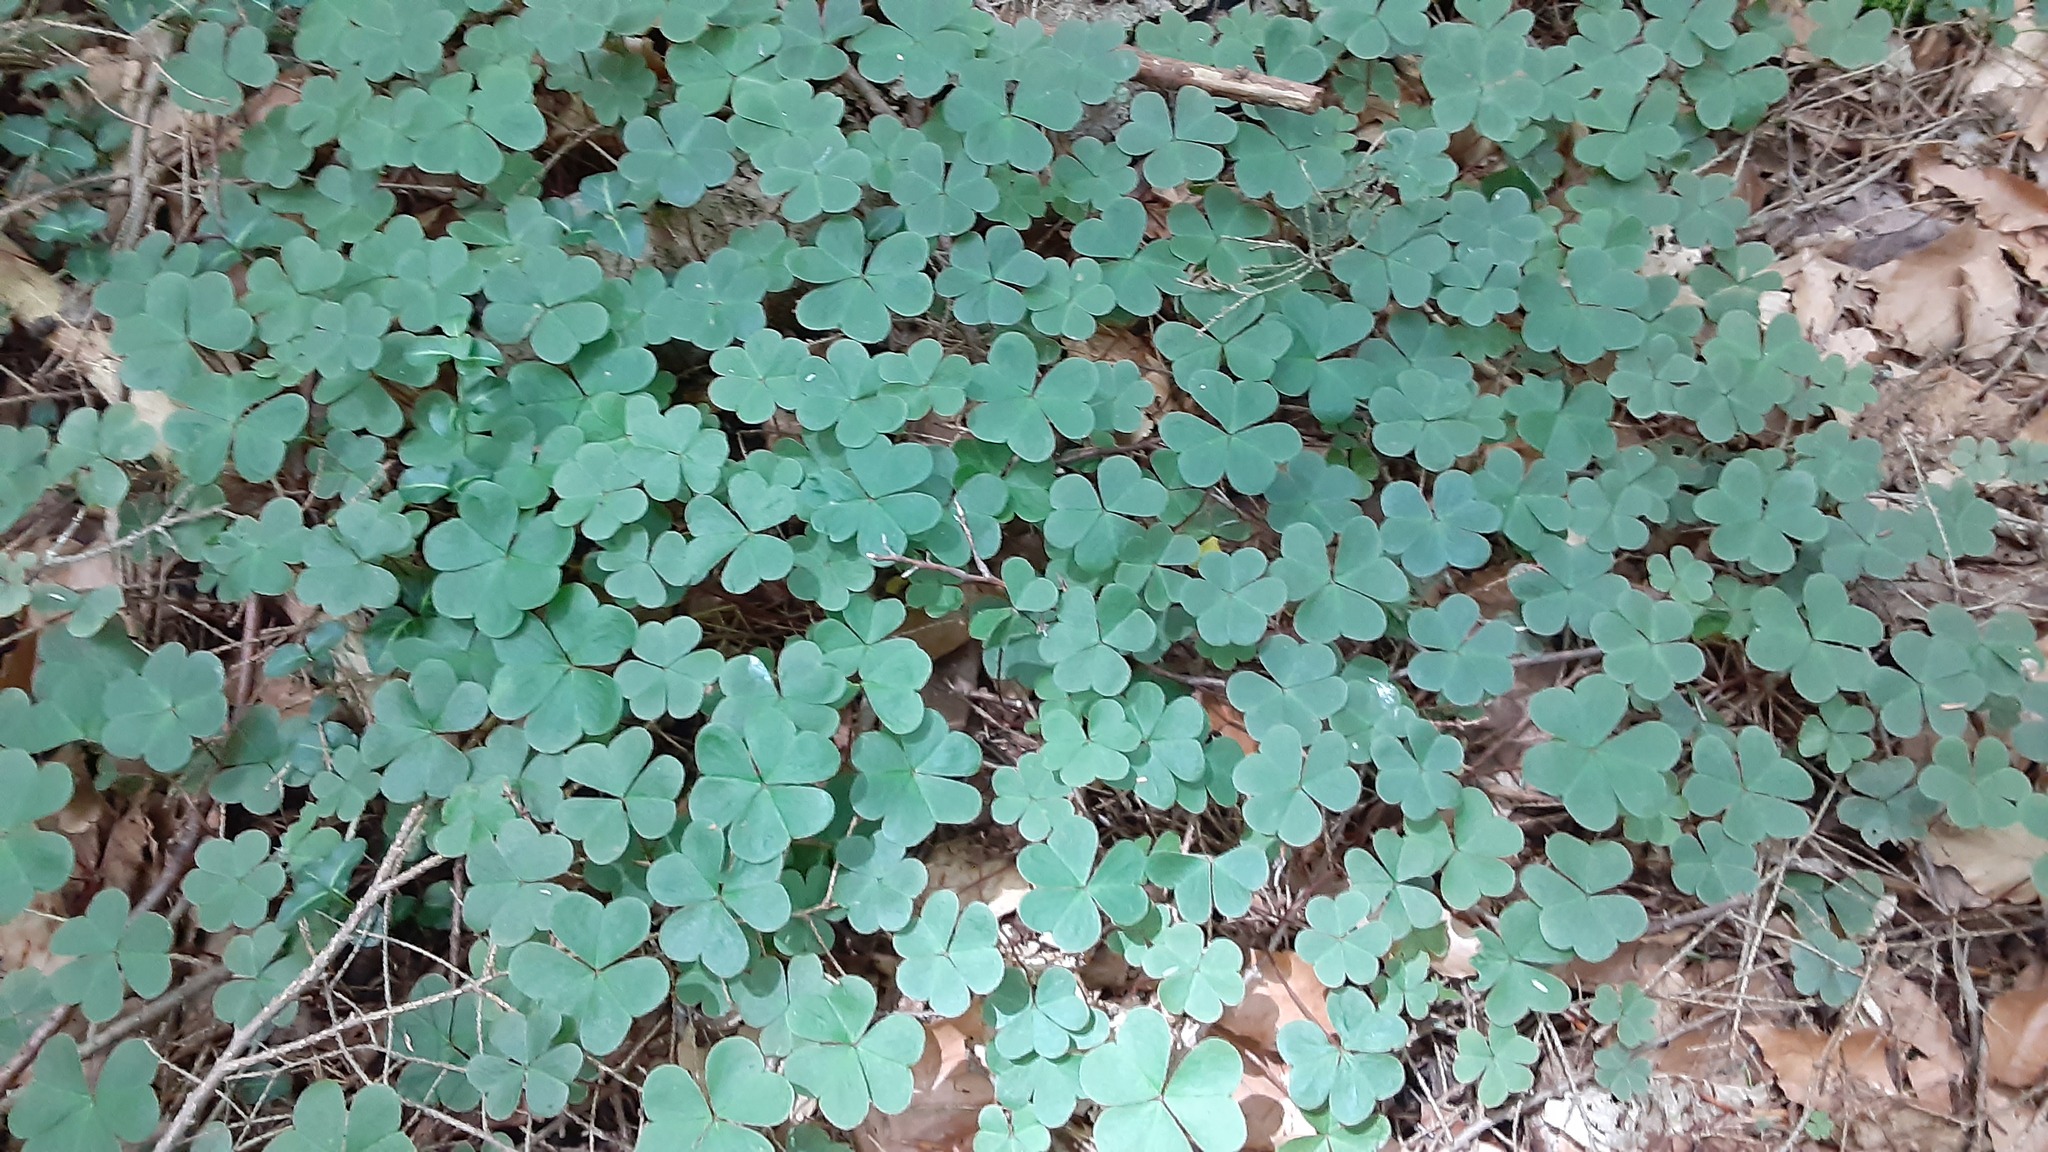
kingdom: Plantae
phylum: Tracheophyta
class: Magnoliopsida
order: Oxalidales
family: Oxalidaceae
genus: Oxalis
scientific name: Oxalis montana
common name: American wood-sorrel
